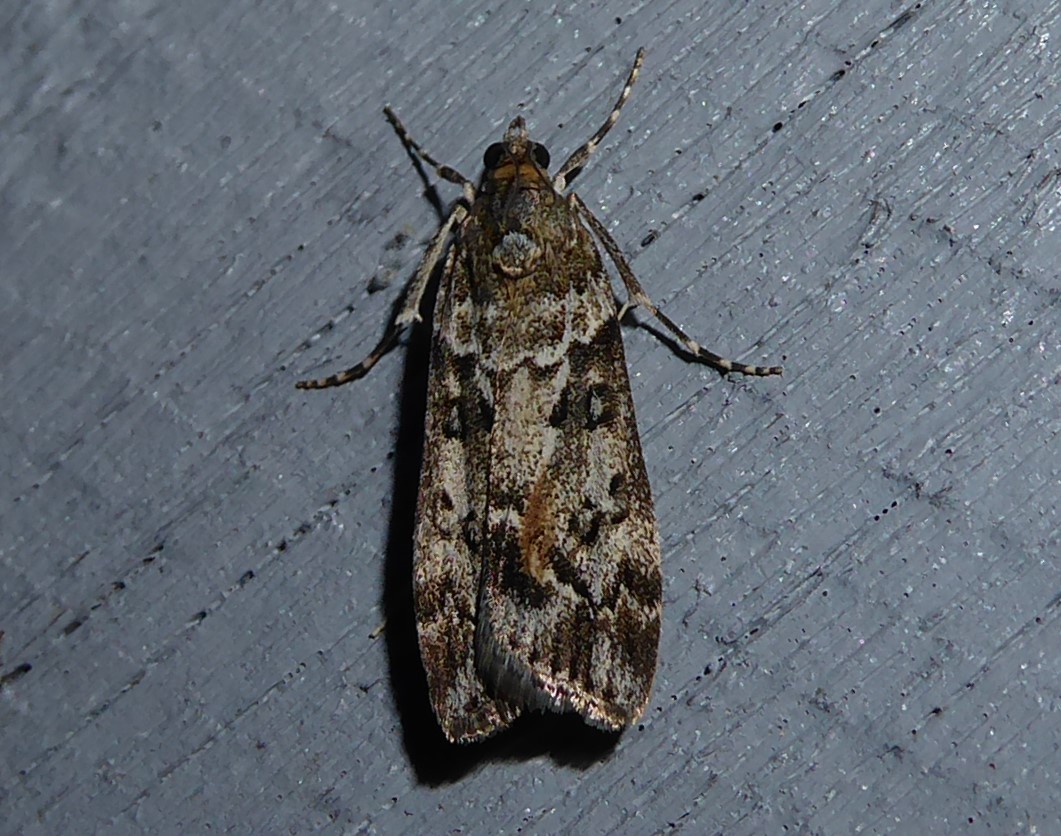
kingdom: Animalia
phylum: Arthropoda
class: Insecta
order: Lepidoptera
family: Crambidae
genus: Eudonia
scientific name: Eudonia submarginalis
